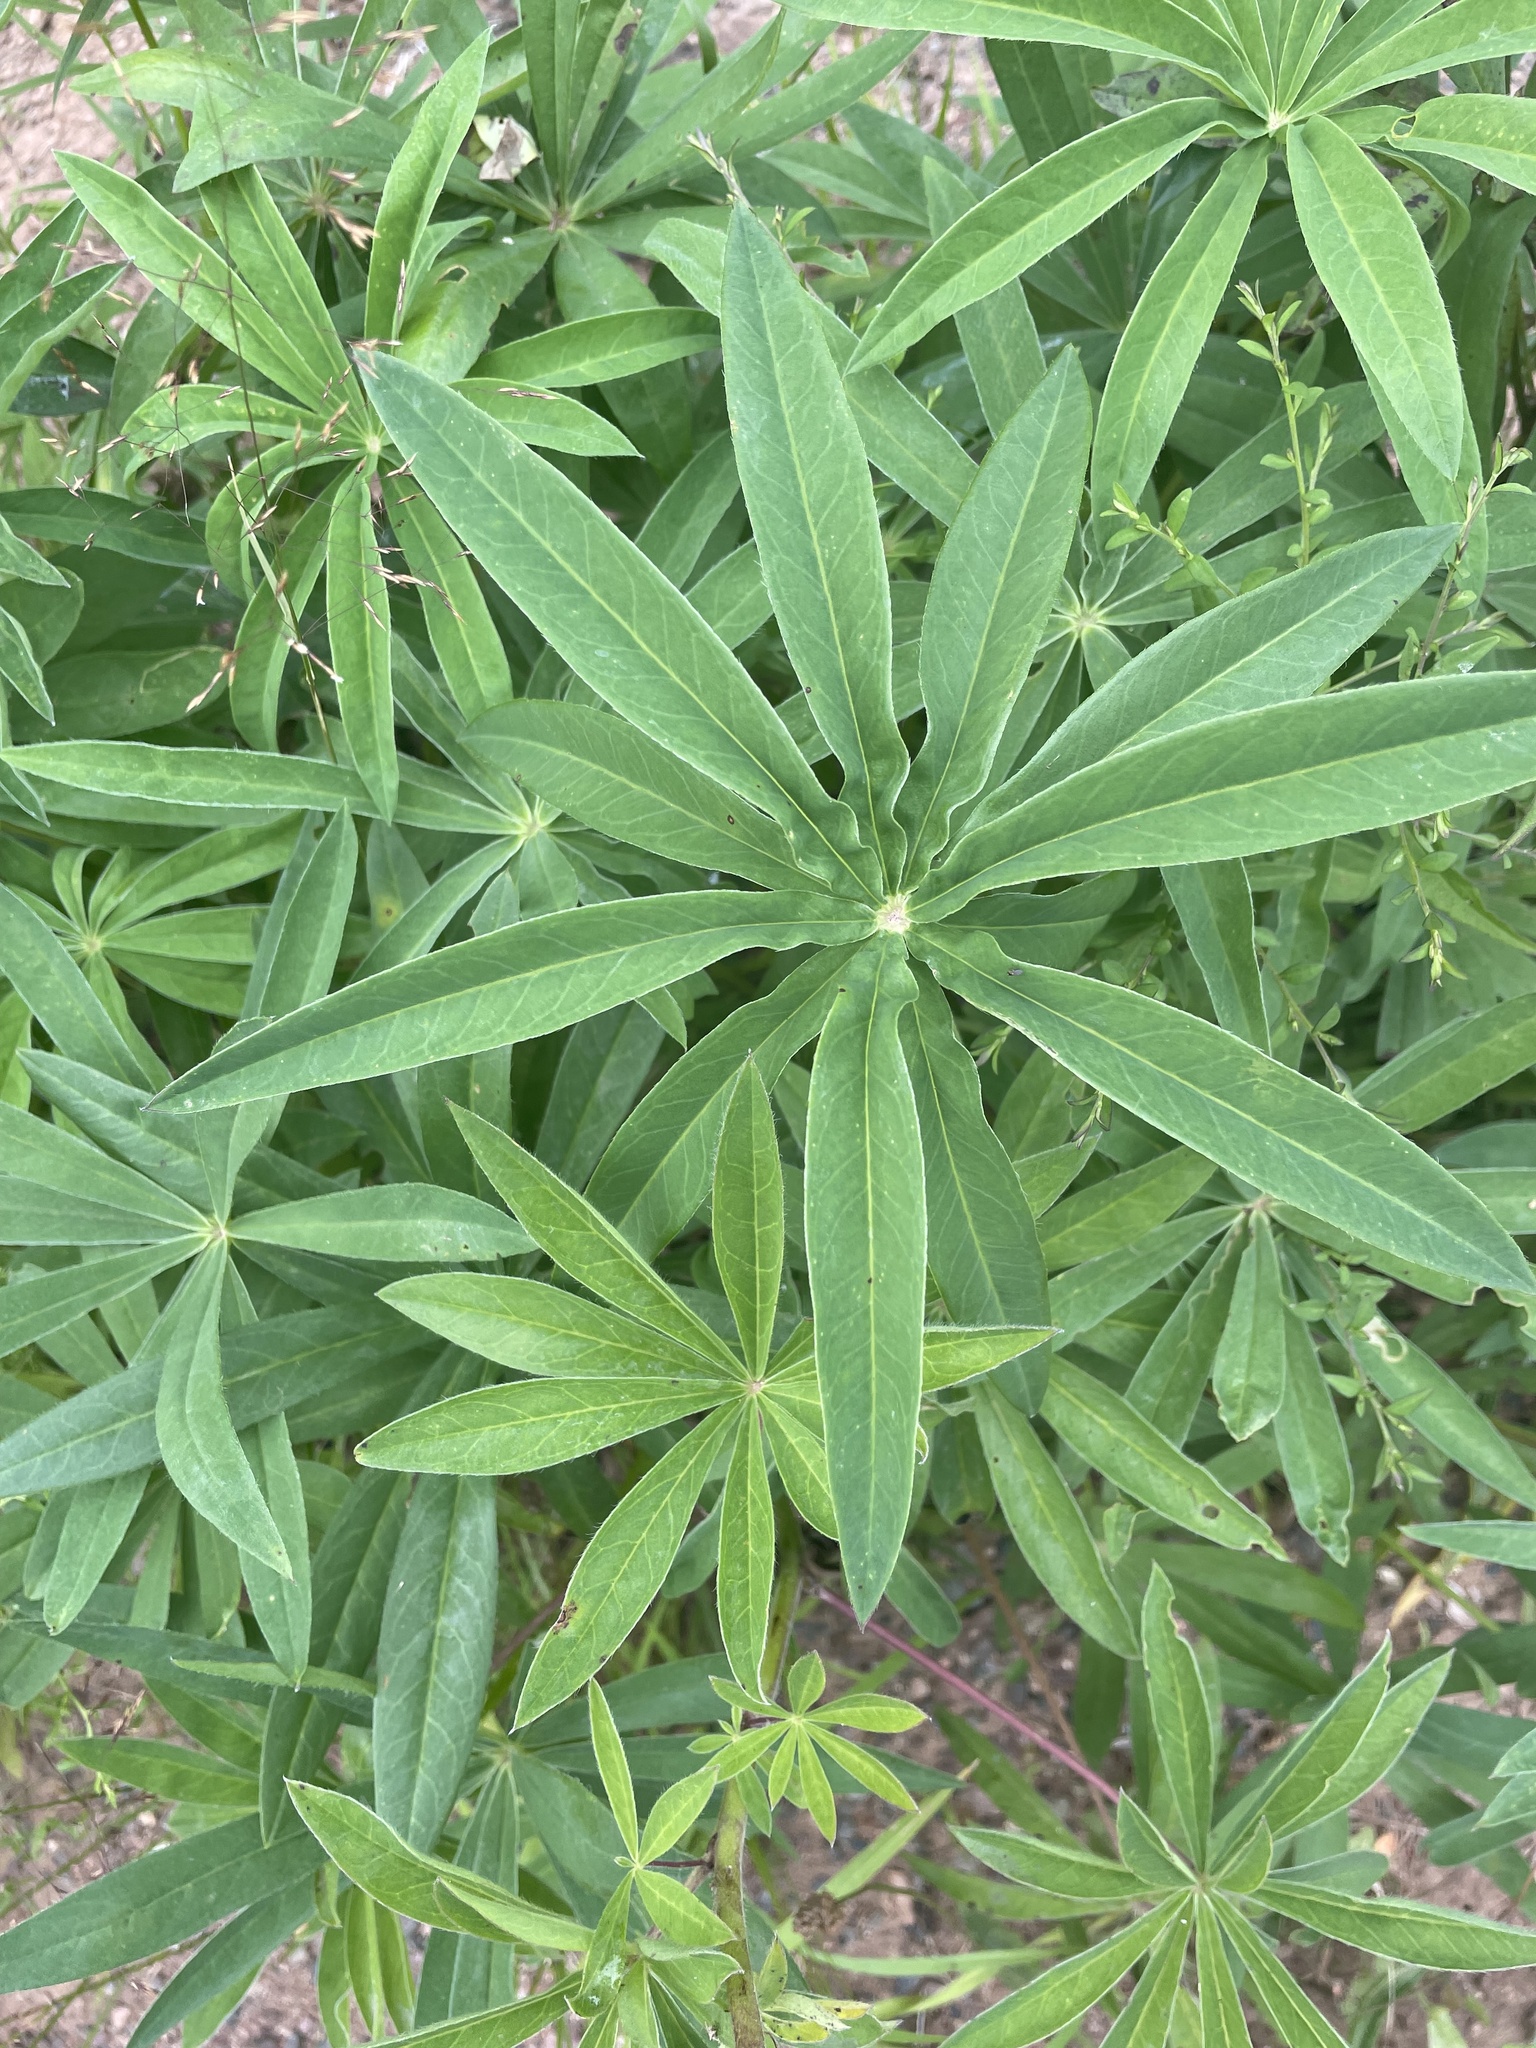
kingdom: Plantae
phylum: Tracheophyta
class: Magnoliopsida
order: Fabales
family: Fabaceae
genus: Lupinus
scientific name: Lupinus polyphyllus
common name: Garden lupin
